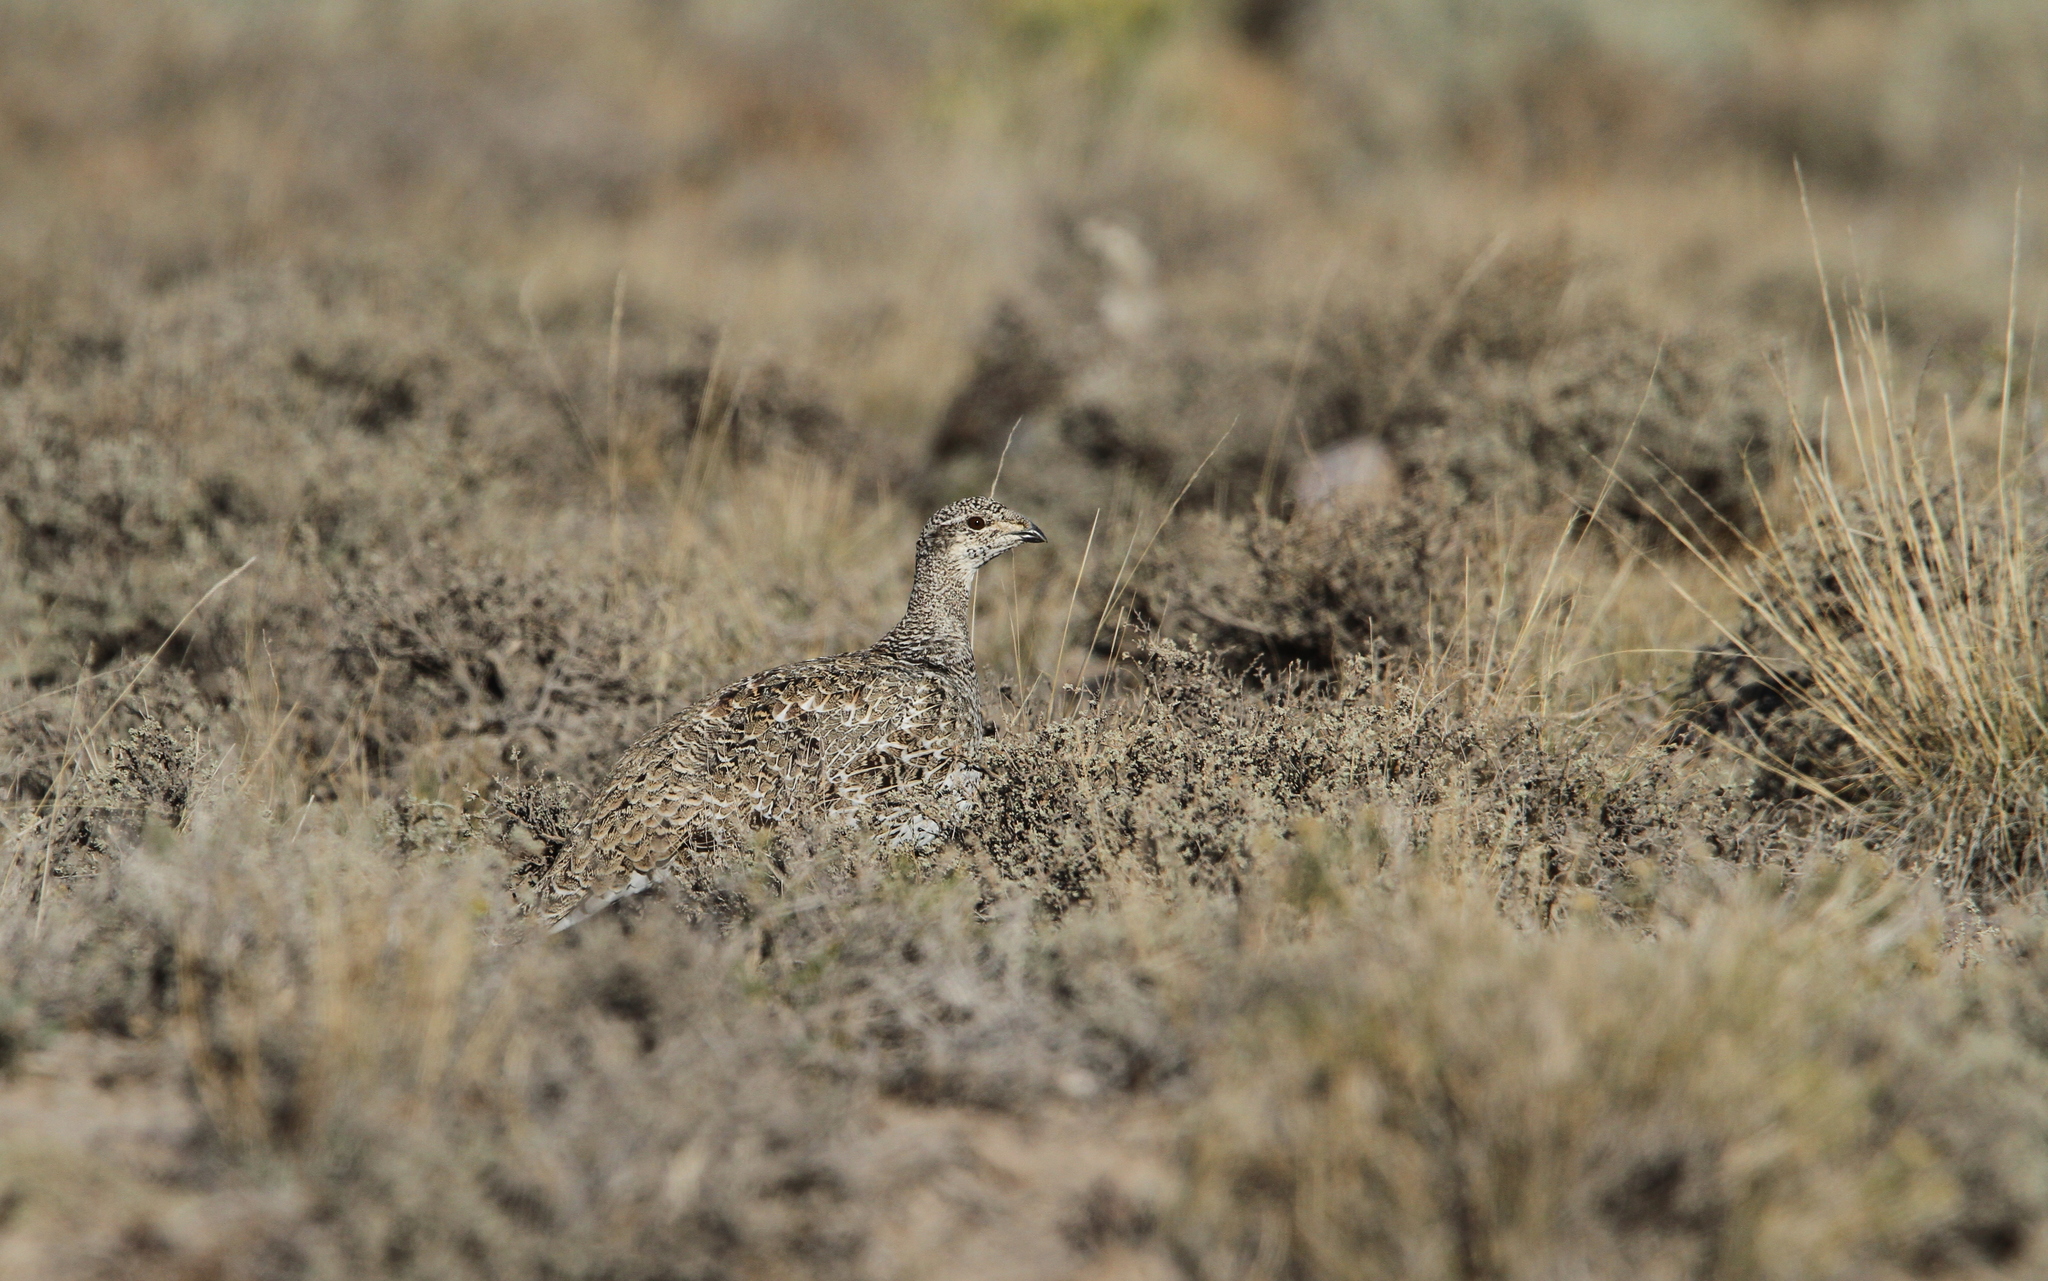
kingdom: Animalia
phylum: Chordata
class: Aves
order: Galliformes
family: Phasianidae
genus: Centrocercus
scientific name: Centrocercus urophasianus
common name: Sage grouse
